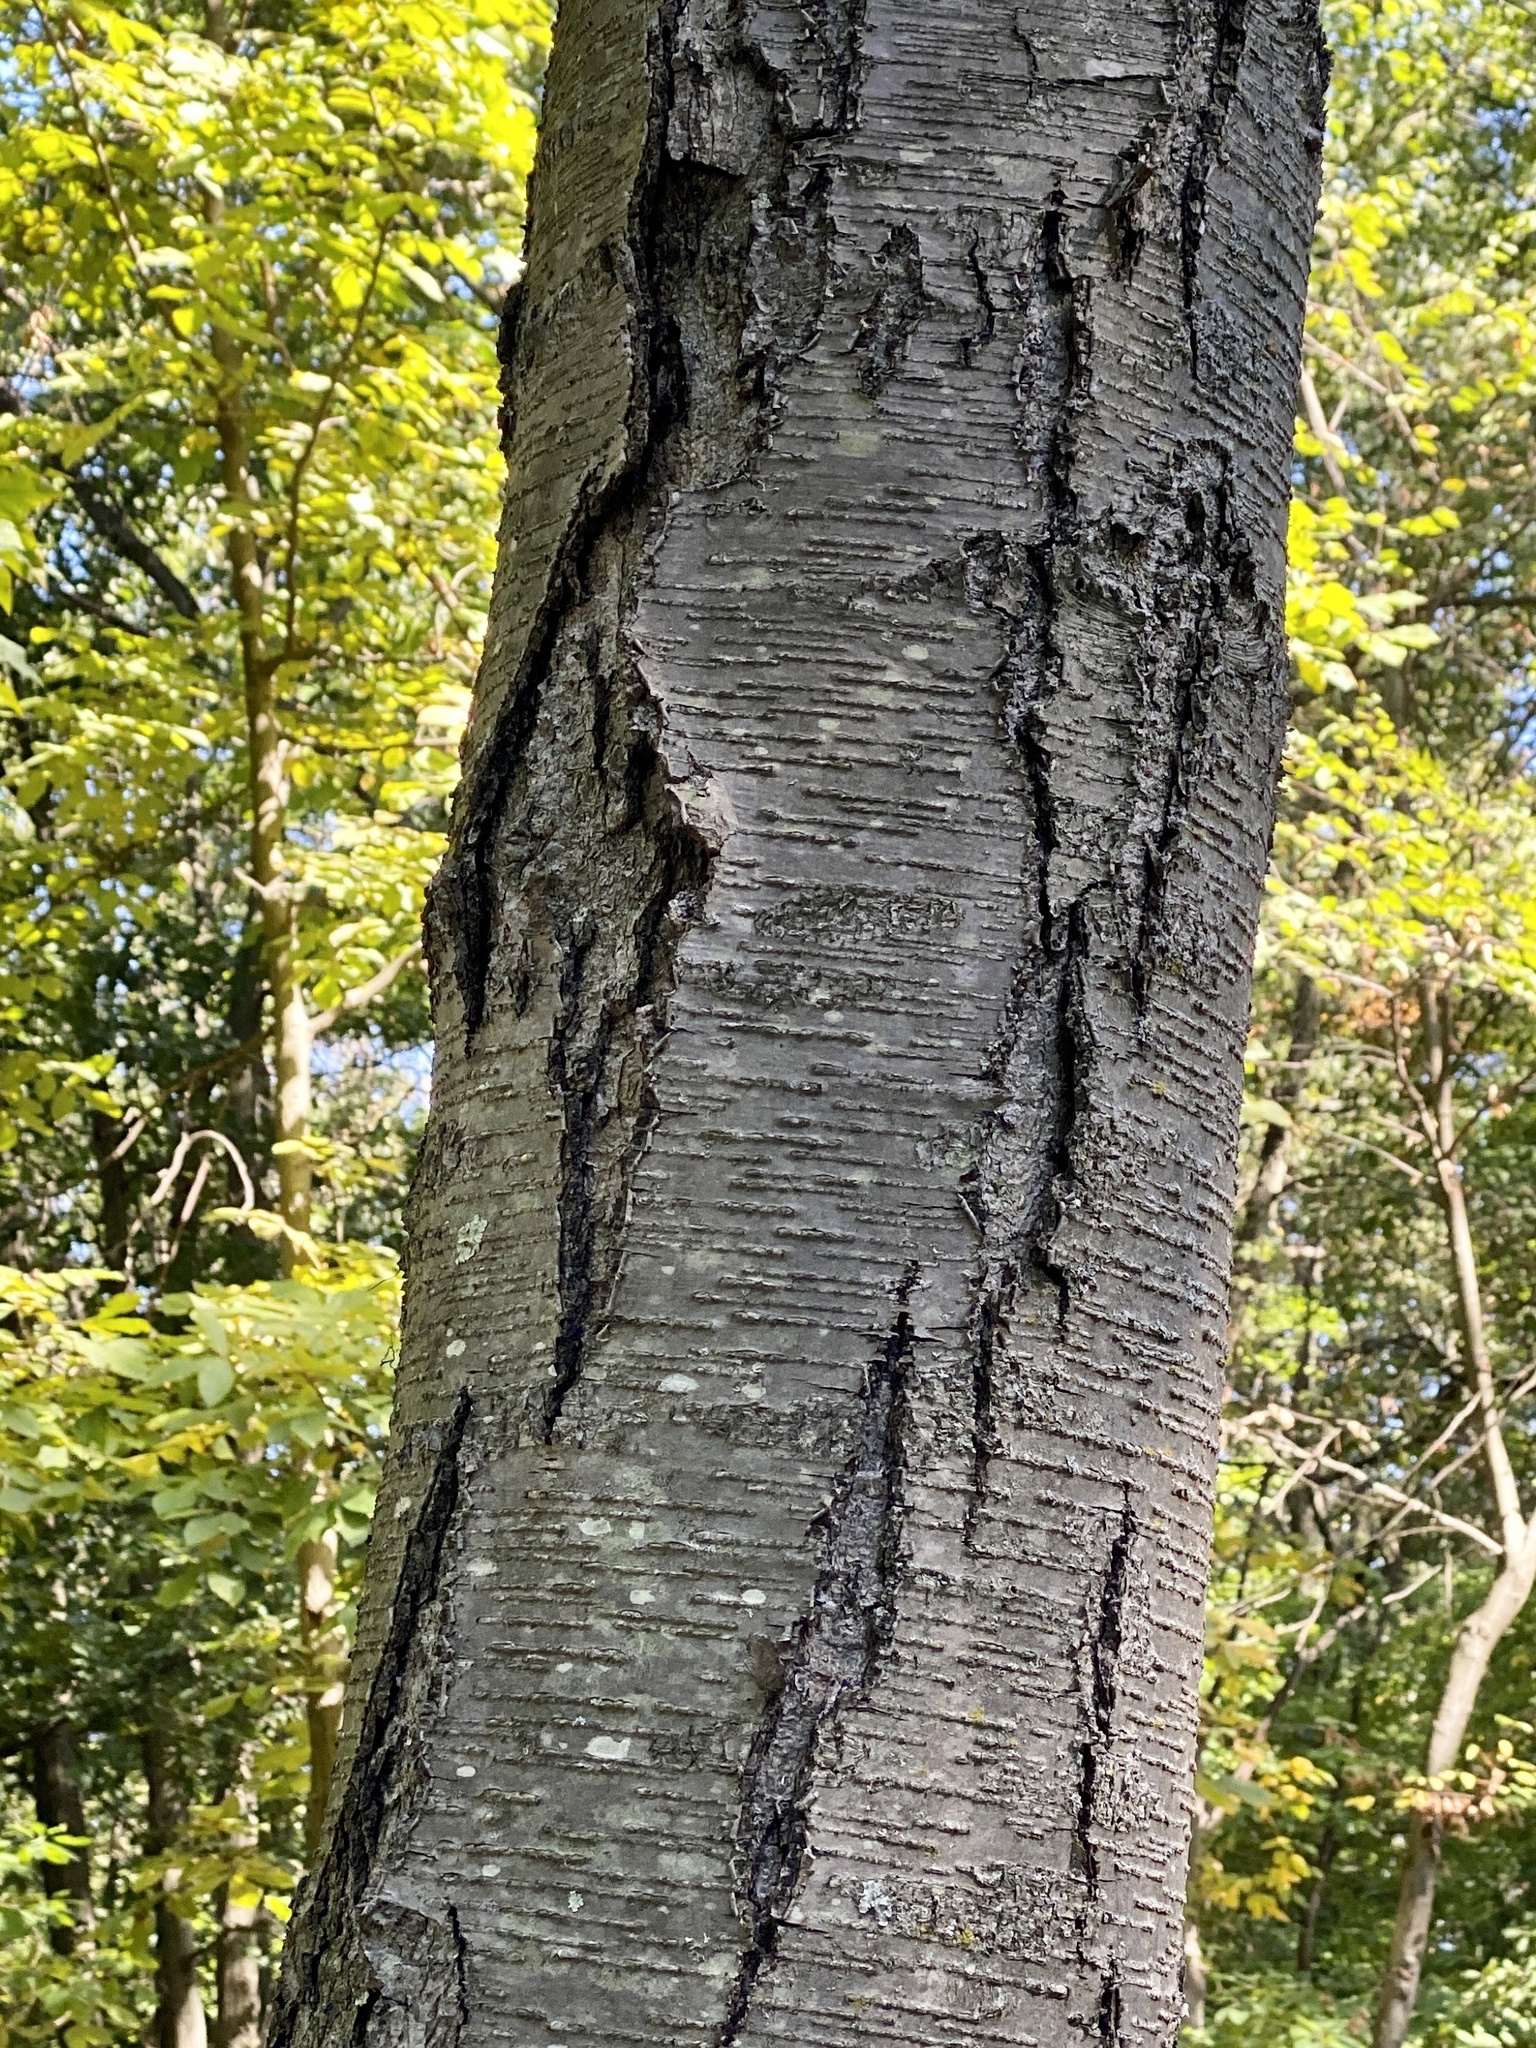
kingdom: Plantae
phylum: Tracheophyta
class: Magnoliopsida
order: Fagales
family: Betulaceae
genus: Betula
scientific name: Betula lenta
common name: Black birch
